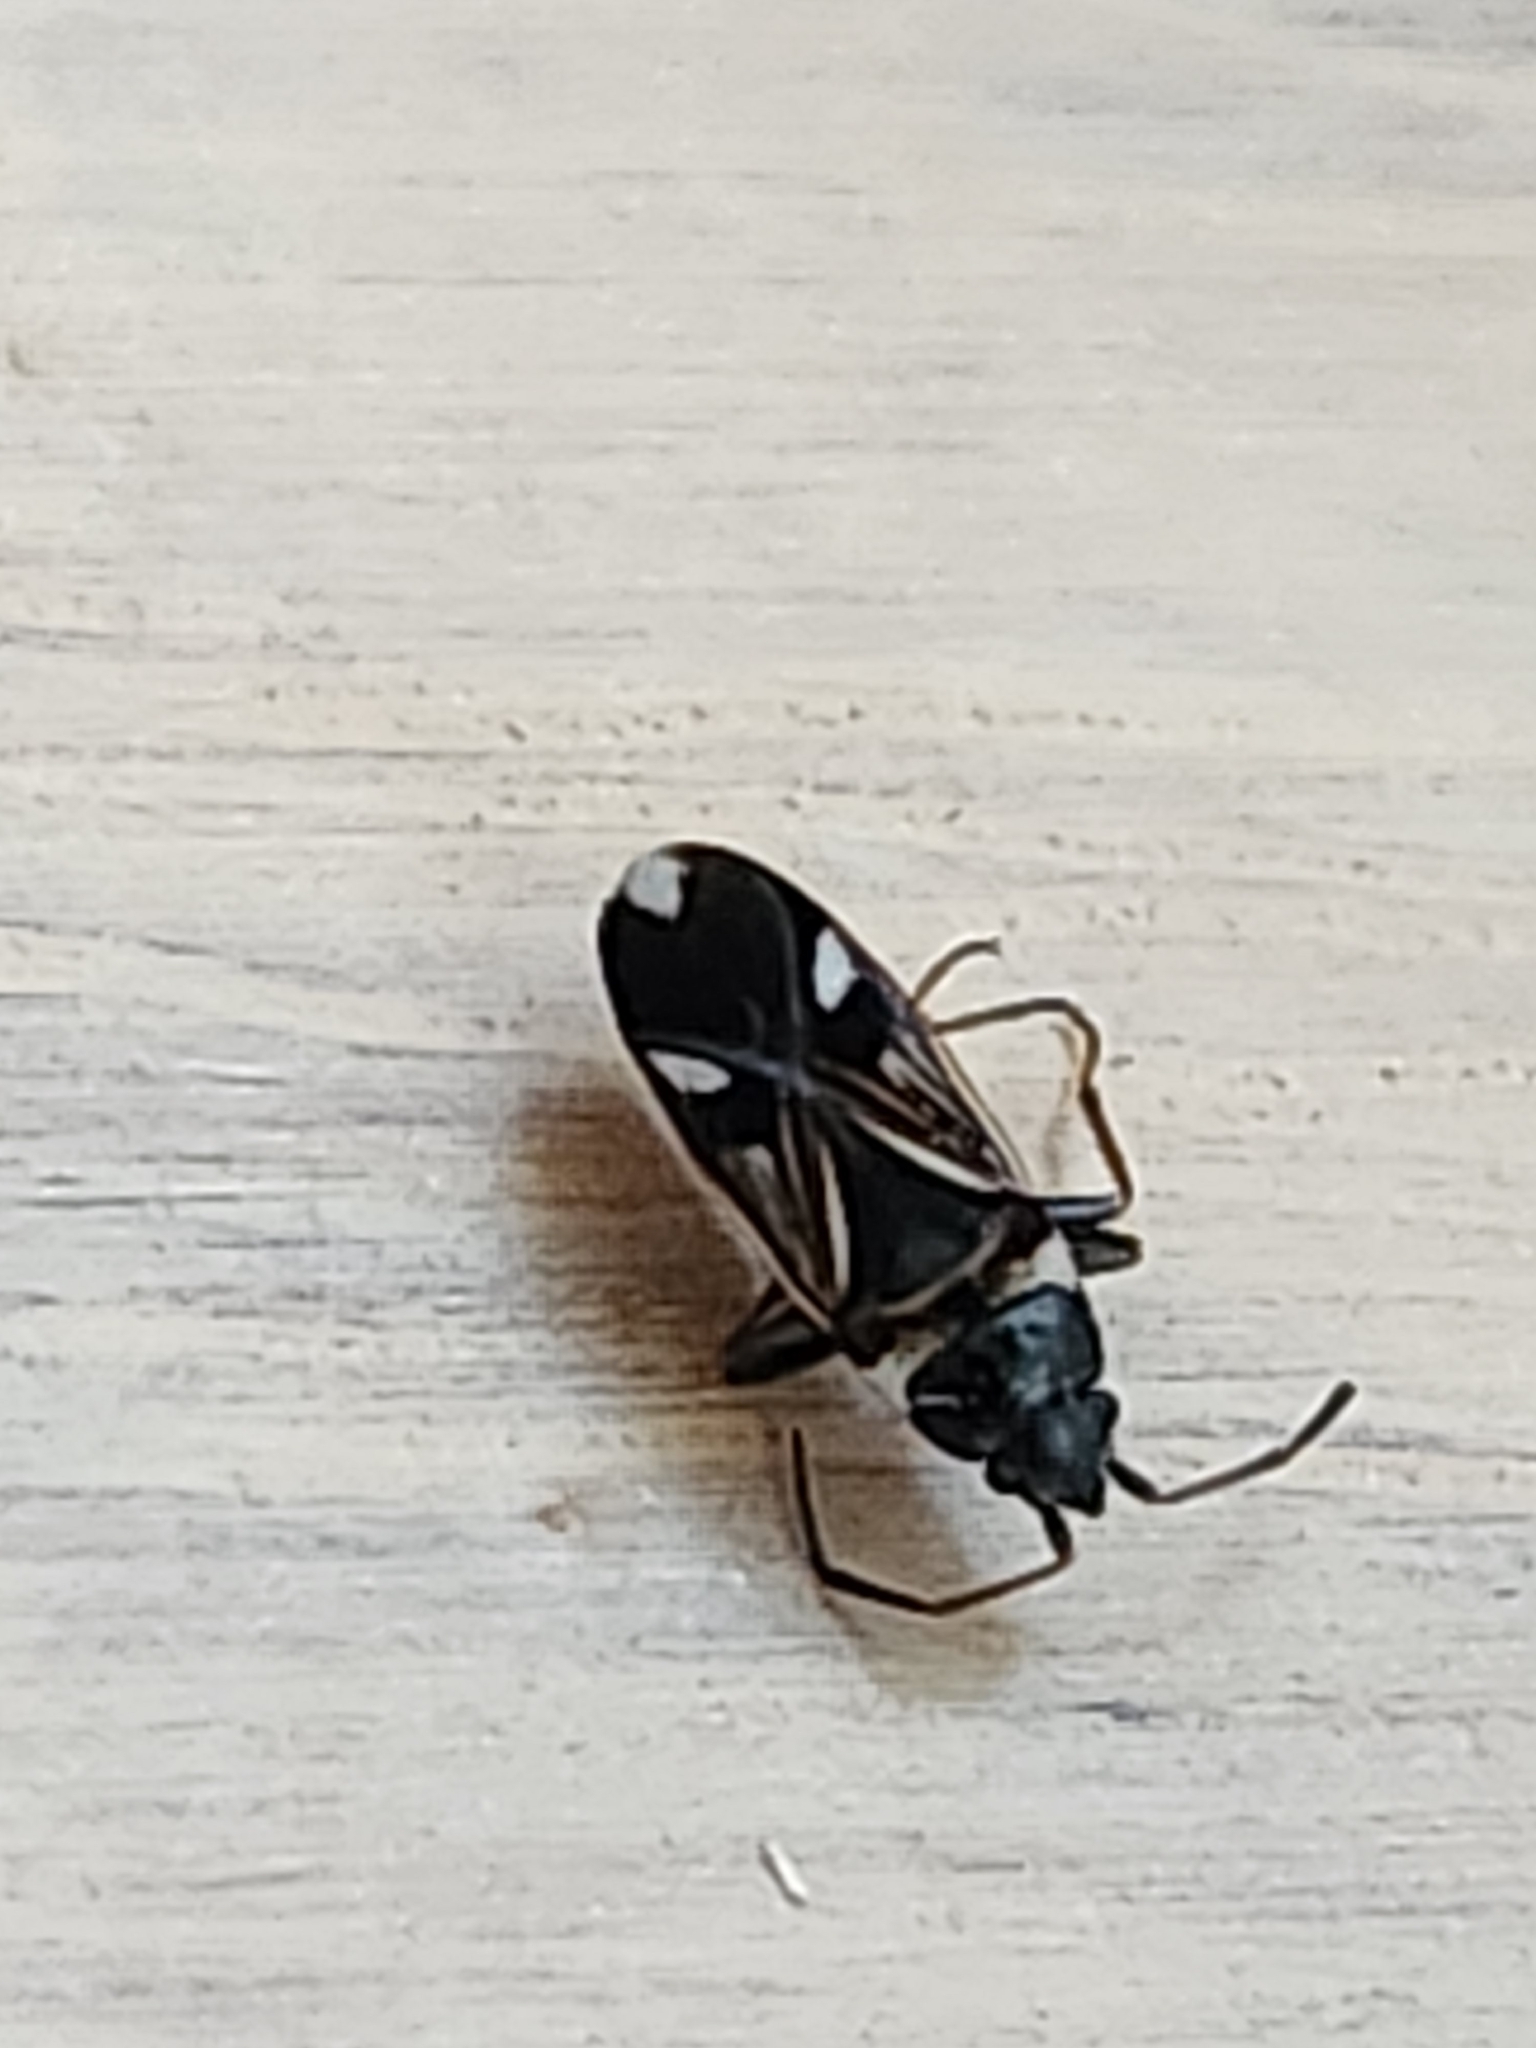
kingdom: Animalia
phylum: Arthropoda
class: Insecta
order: Hemiptera
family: Rhyparochromidae
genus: Raglius
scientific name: Raglius alboacuminatus
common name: Dirt-colored seed bug
